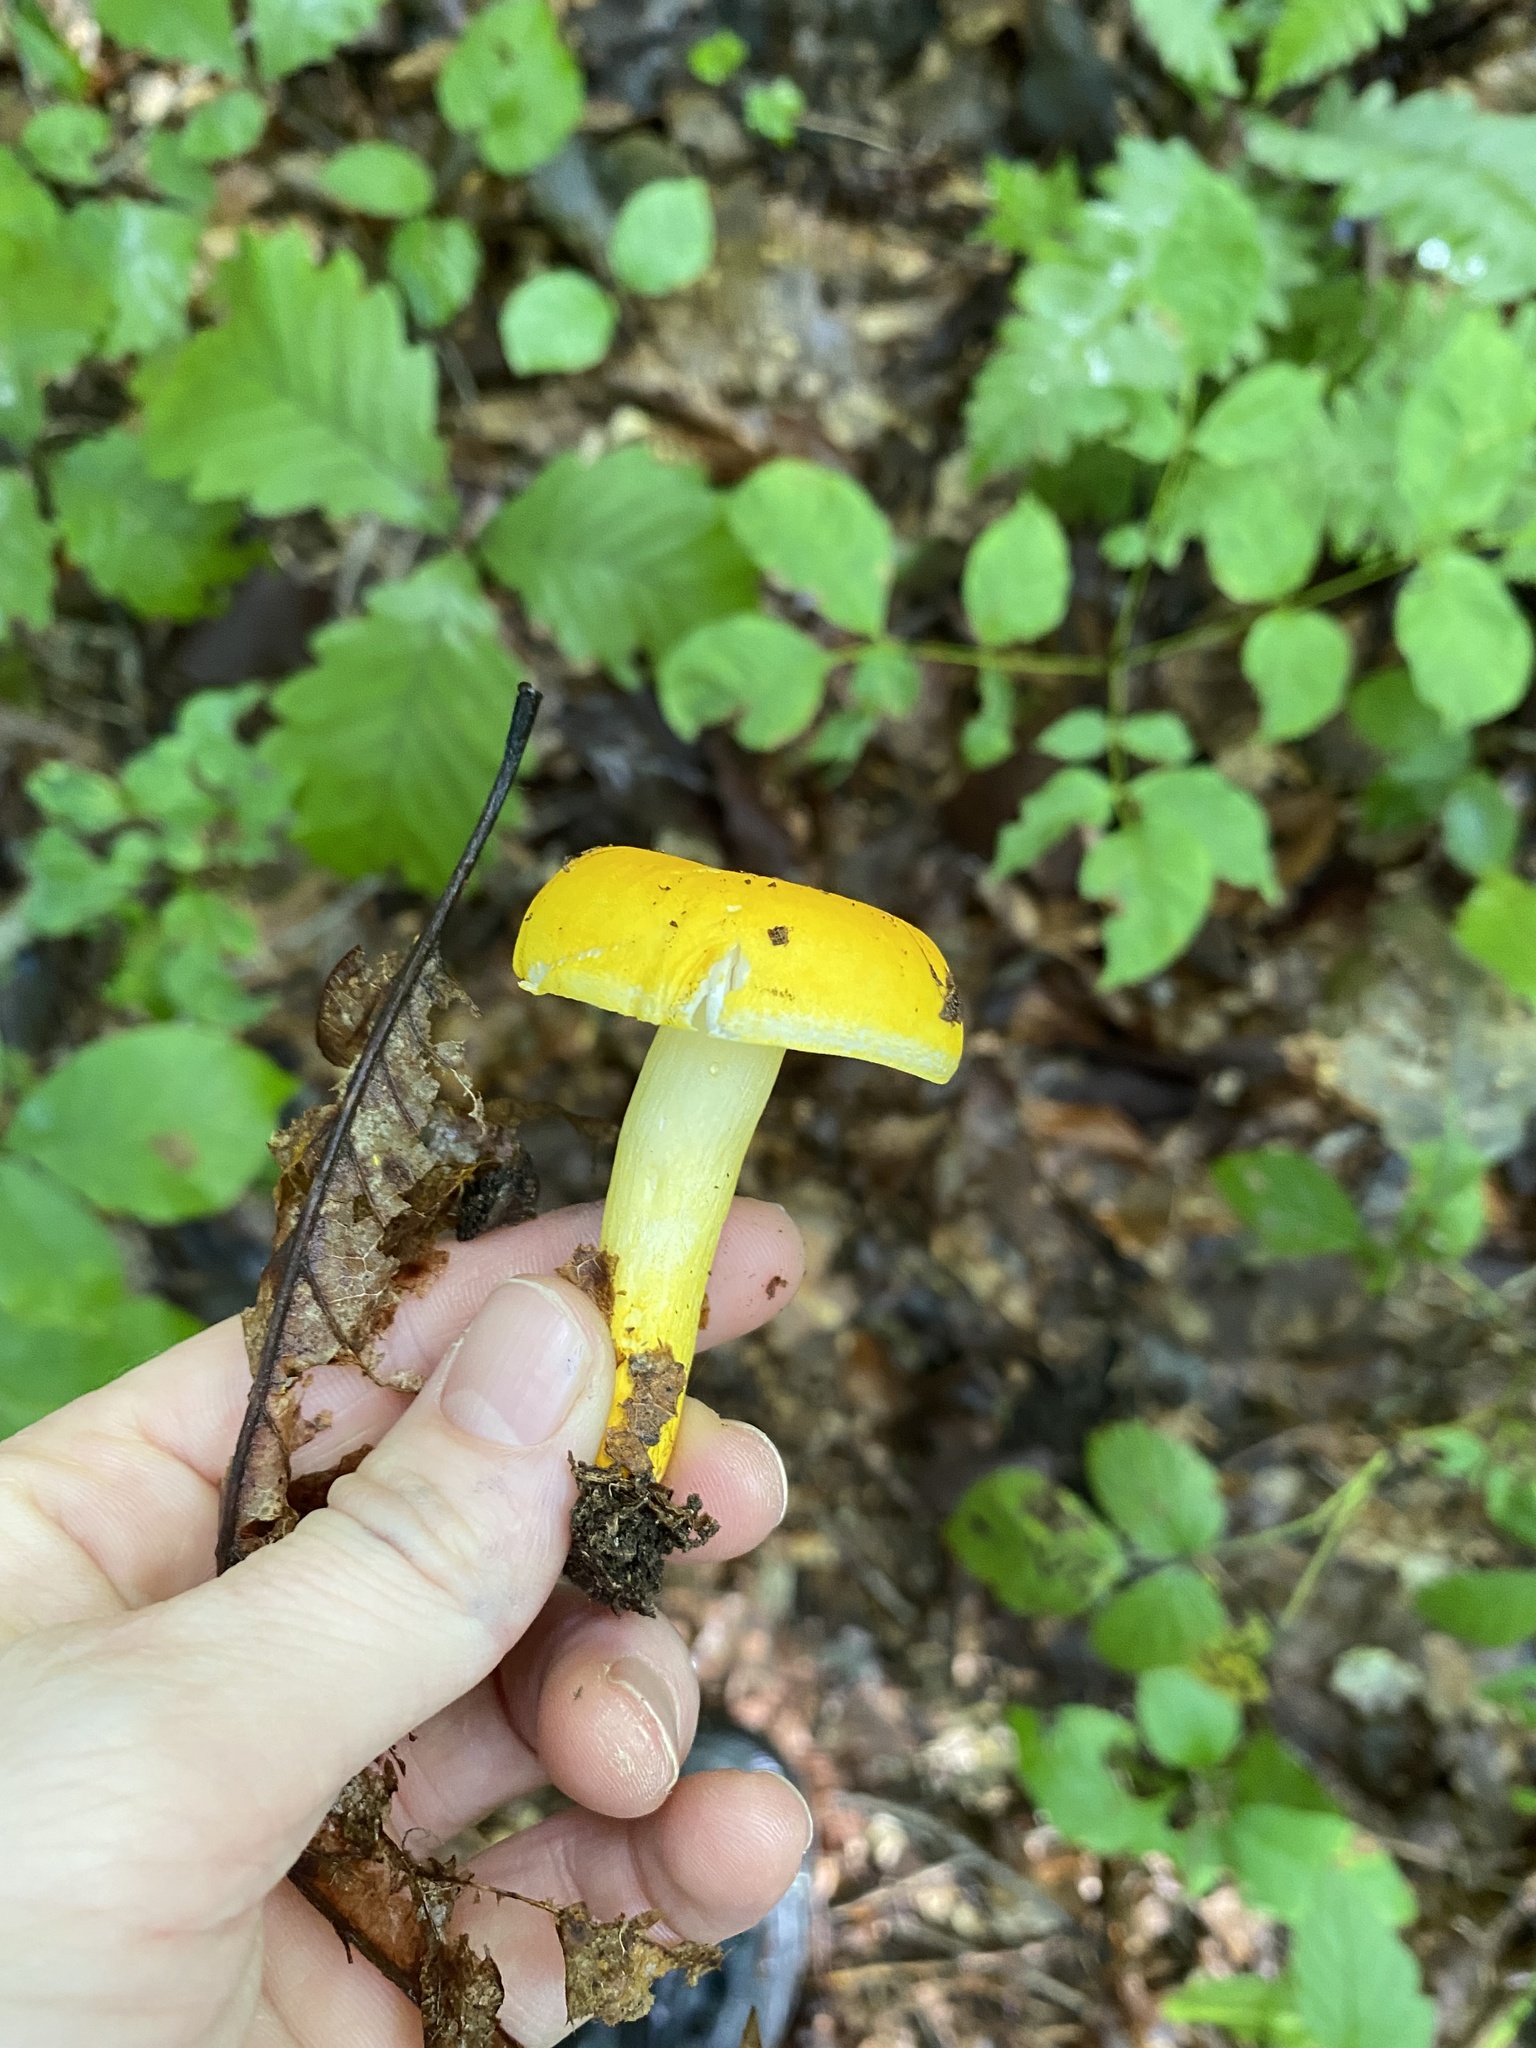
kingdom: Fungi
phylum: Basidiomycota
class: Agaricomycetes
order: Russulales
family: Russulaceae
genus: Russula
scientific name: Russula flavida
